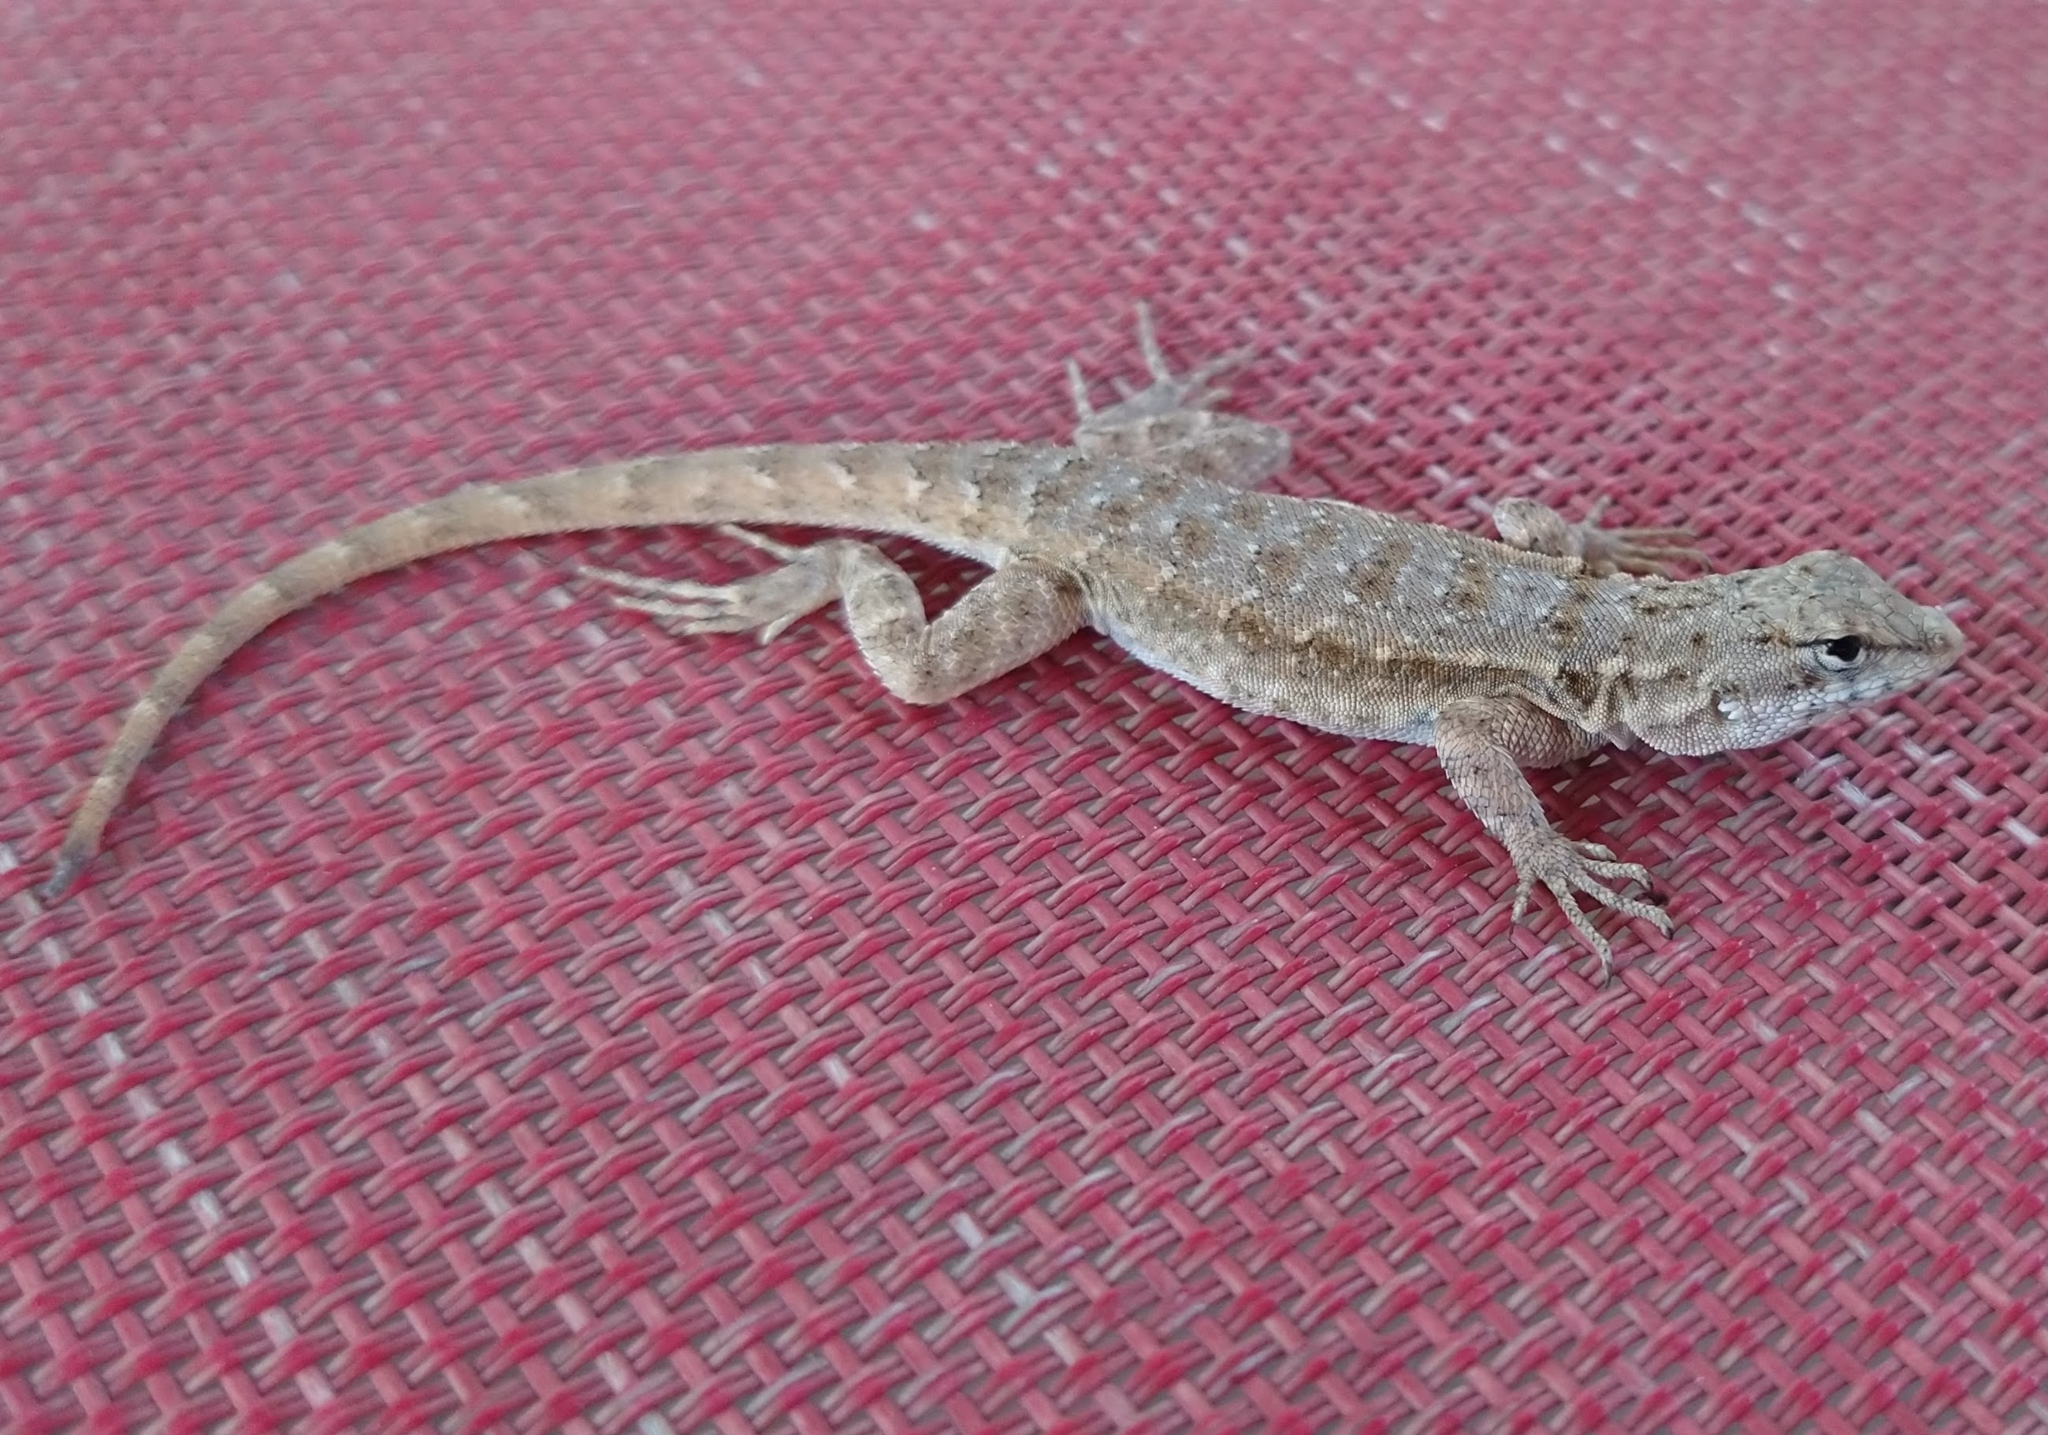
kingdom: Animalia
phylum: Chordata
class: Squamata
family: Phrynosomatidae
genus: Uta
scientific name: Uta stansburiana
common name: Side-blotched lizard
